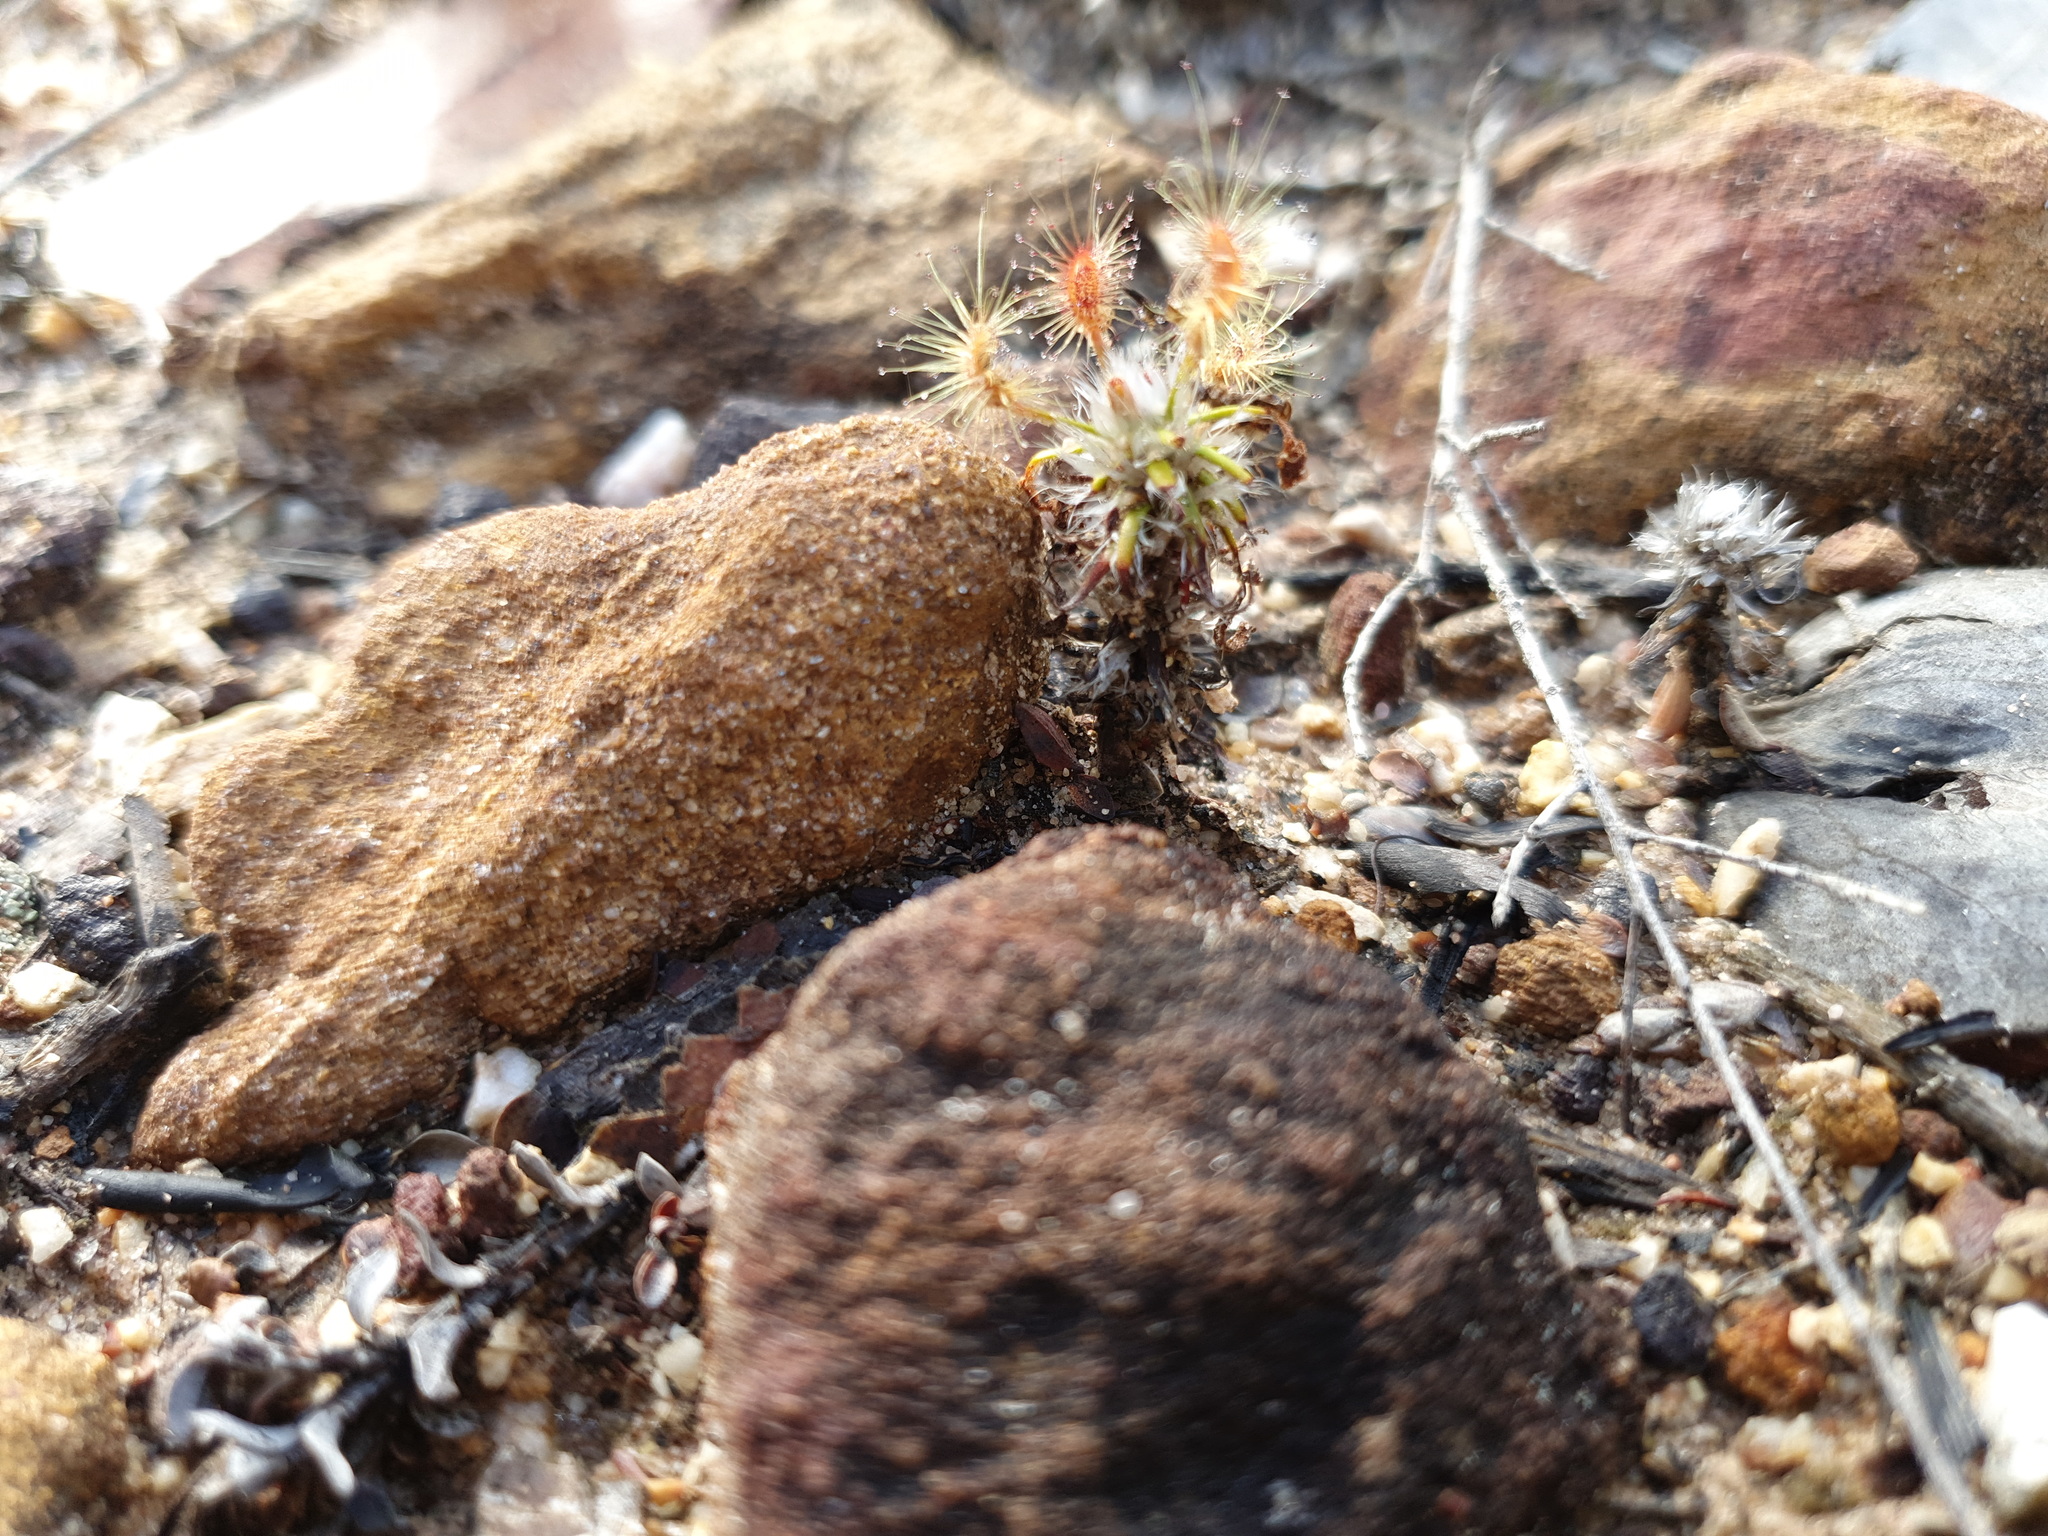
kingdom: Plantae
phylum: Tracheophyta
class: Magnoliopsida
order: Caryophyllales
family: Droseraceae
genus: Drosera
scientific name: Drosera scorpioides
